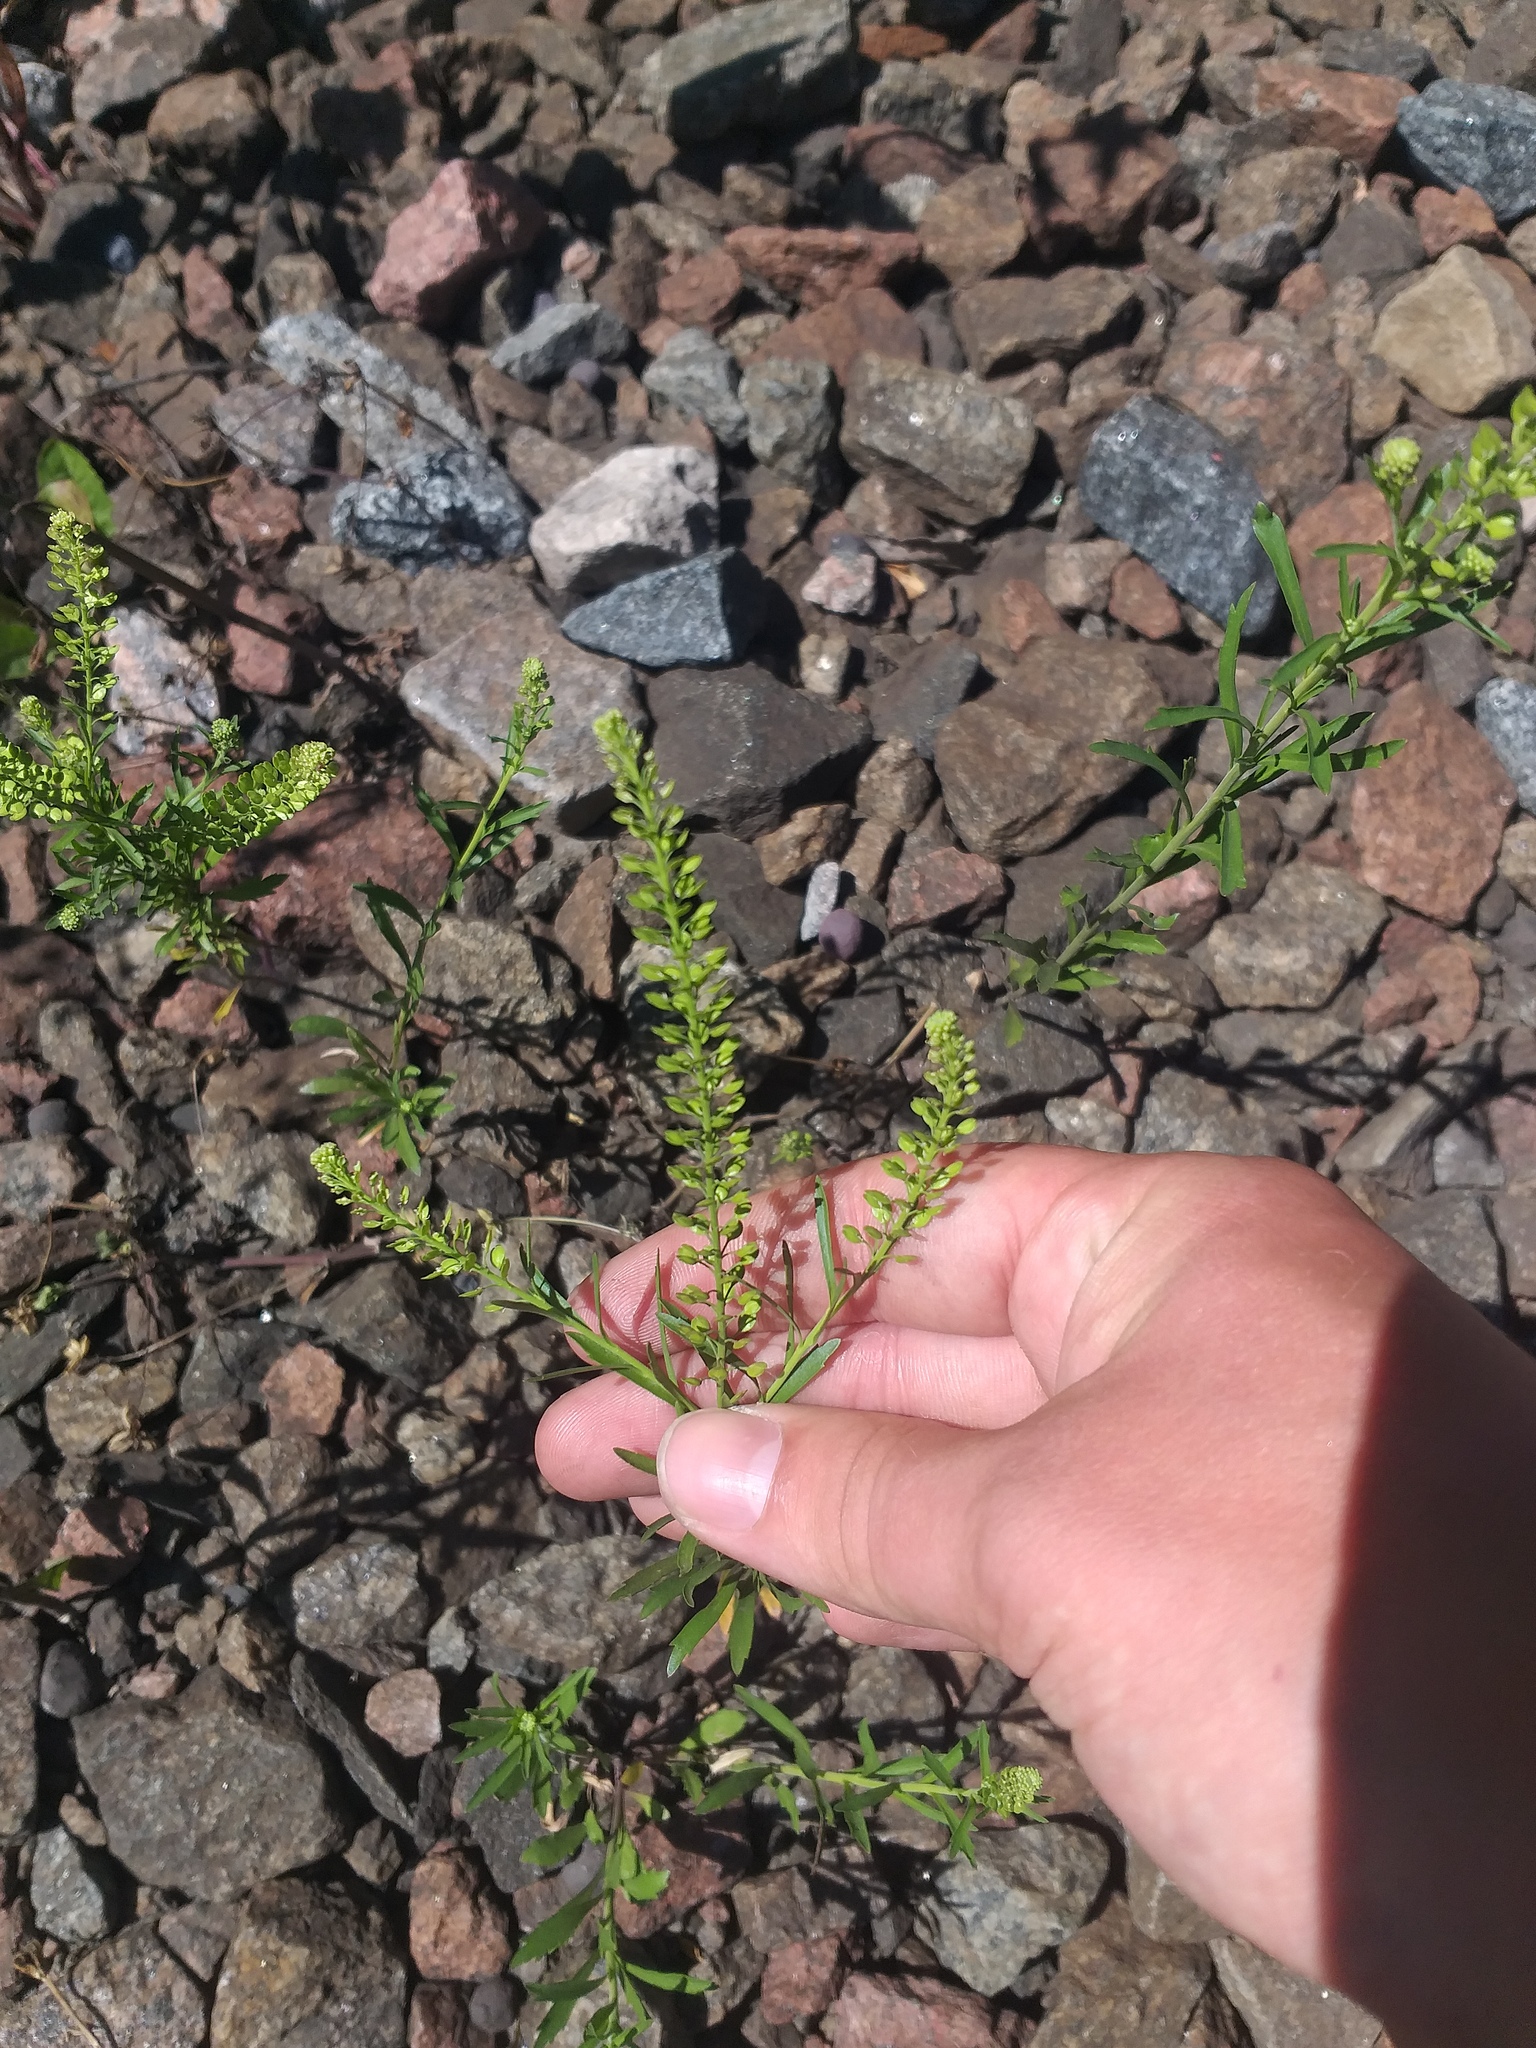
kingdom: Plantae
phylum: Tracheophyta
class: Magnoliopsida
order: Brassicales
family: Brassicaceae
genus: Lepidium
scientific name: Lepidium densiflorum
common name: Miner's pepperwort
